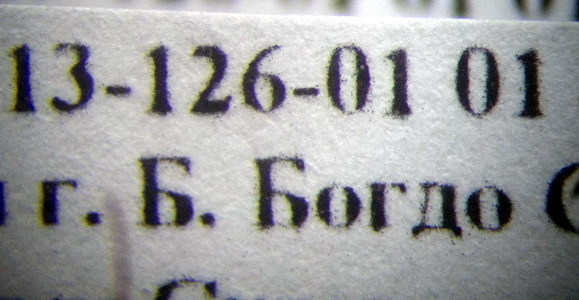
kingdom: Animalia
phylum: Arthropoda
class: Insecta
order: Hymenoptera
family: Formicidae
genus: Camponotus
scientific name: Camponotus turkestanus
